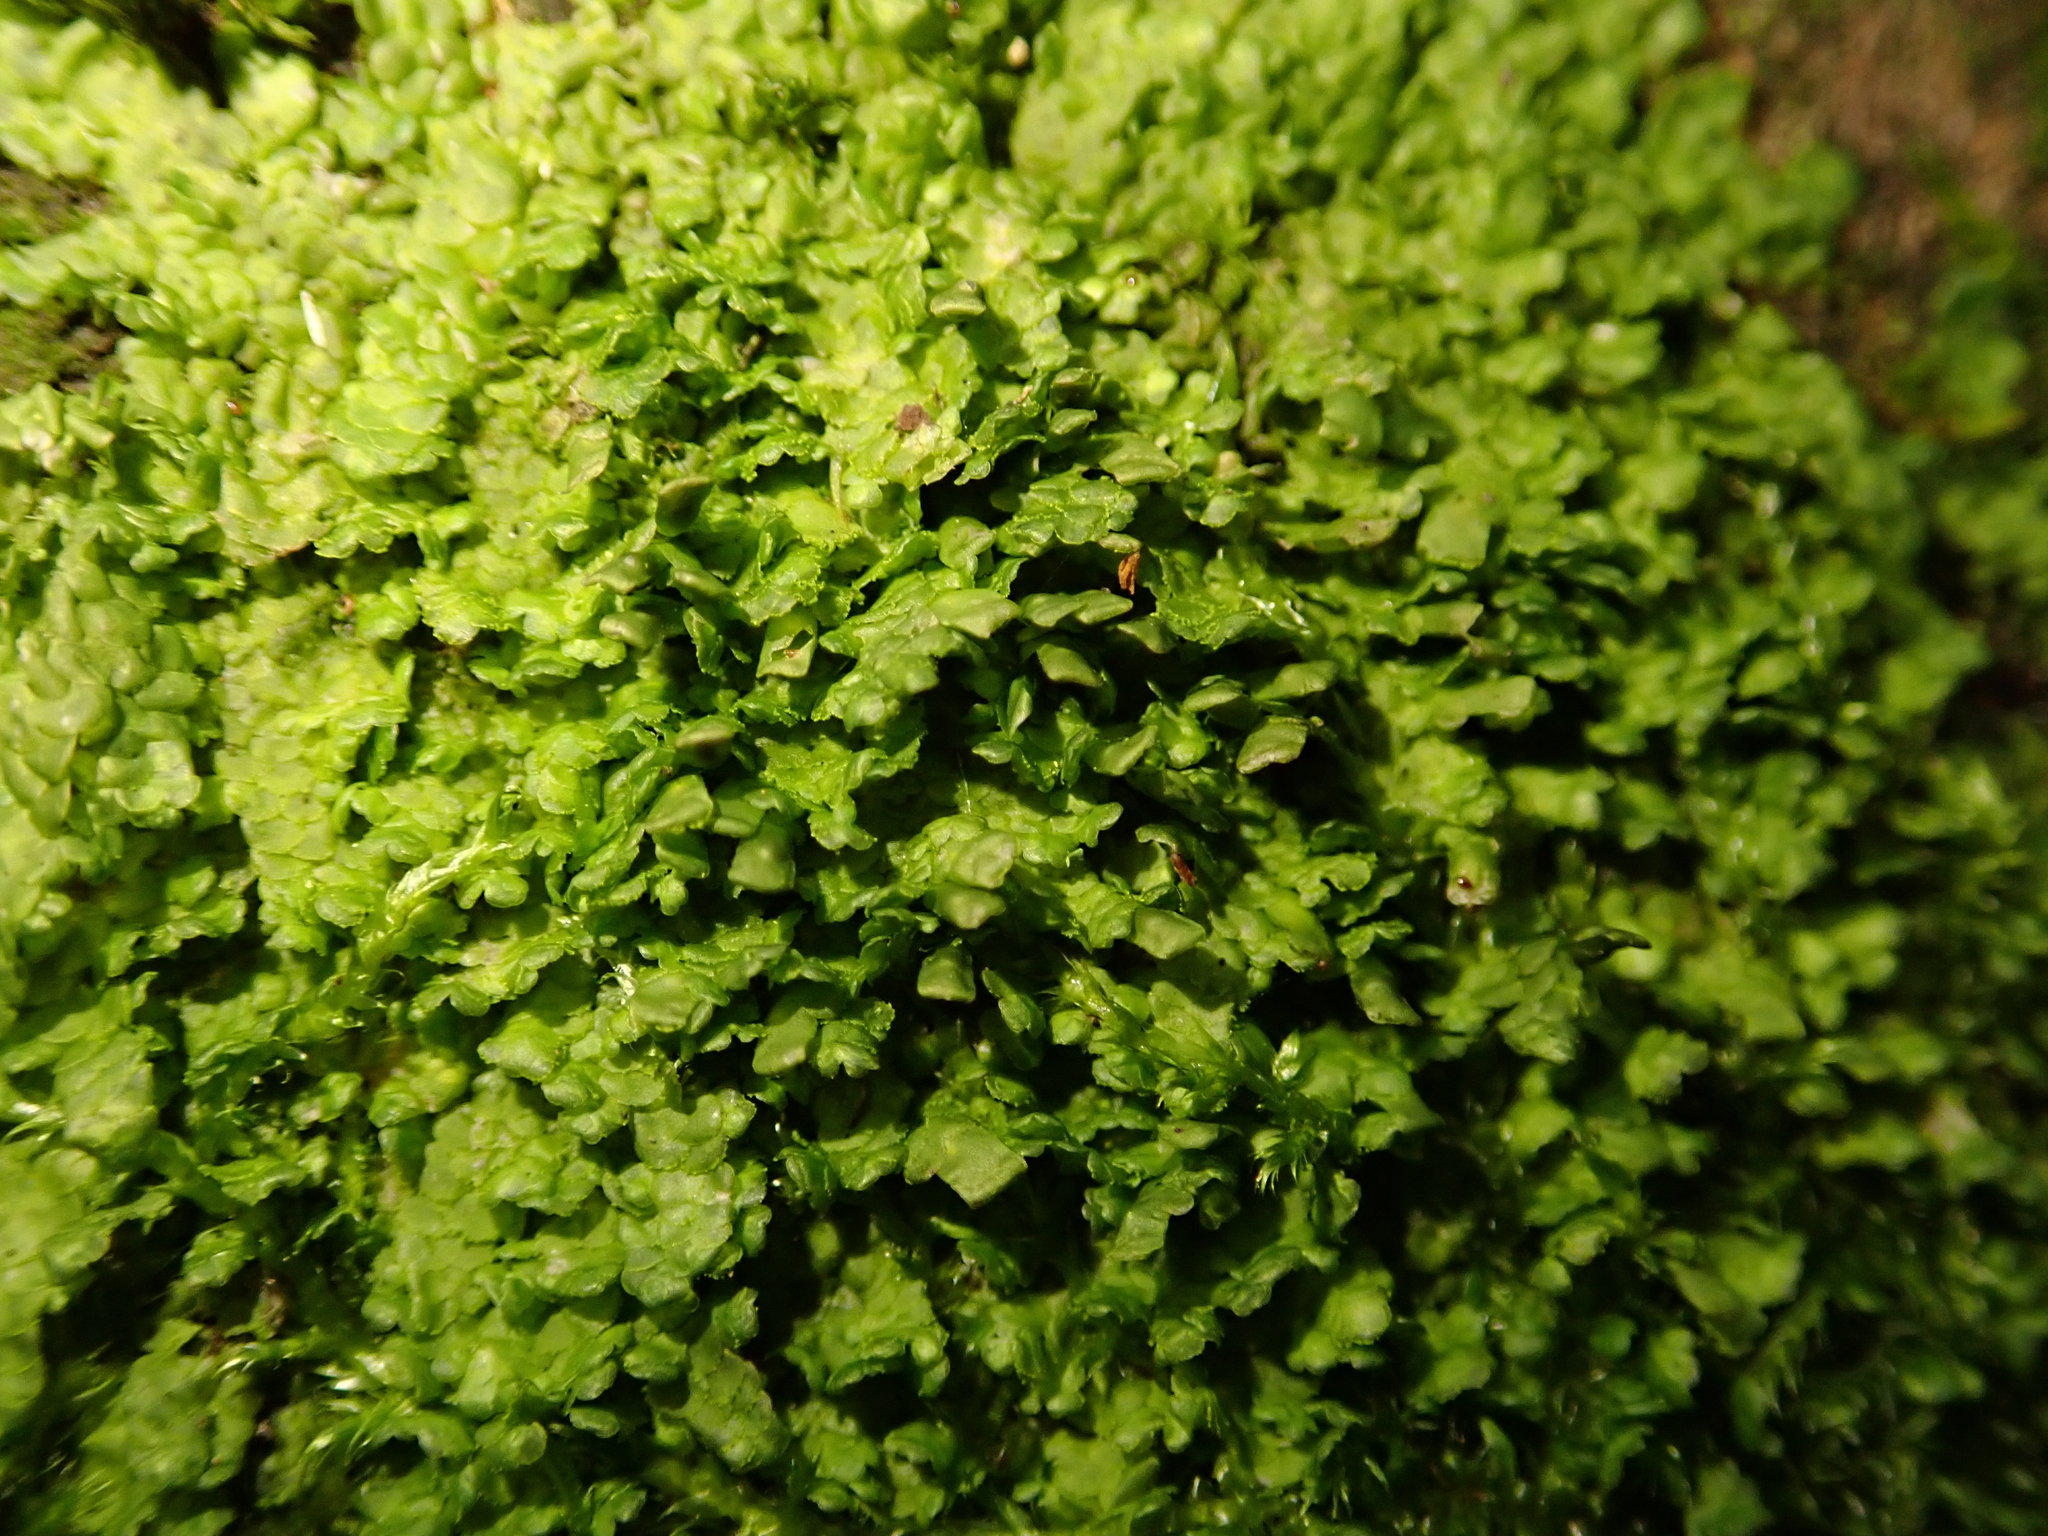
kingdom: Plantae
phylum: Marchantiophyta
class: Jungermanniopsida
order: Porellales
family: Radulaceae
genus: Radula
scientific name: Radula complanata
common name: Flat-leaved scalewort
